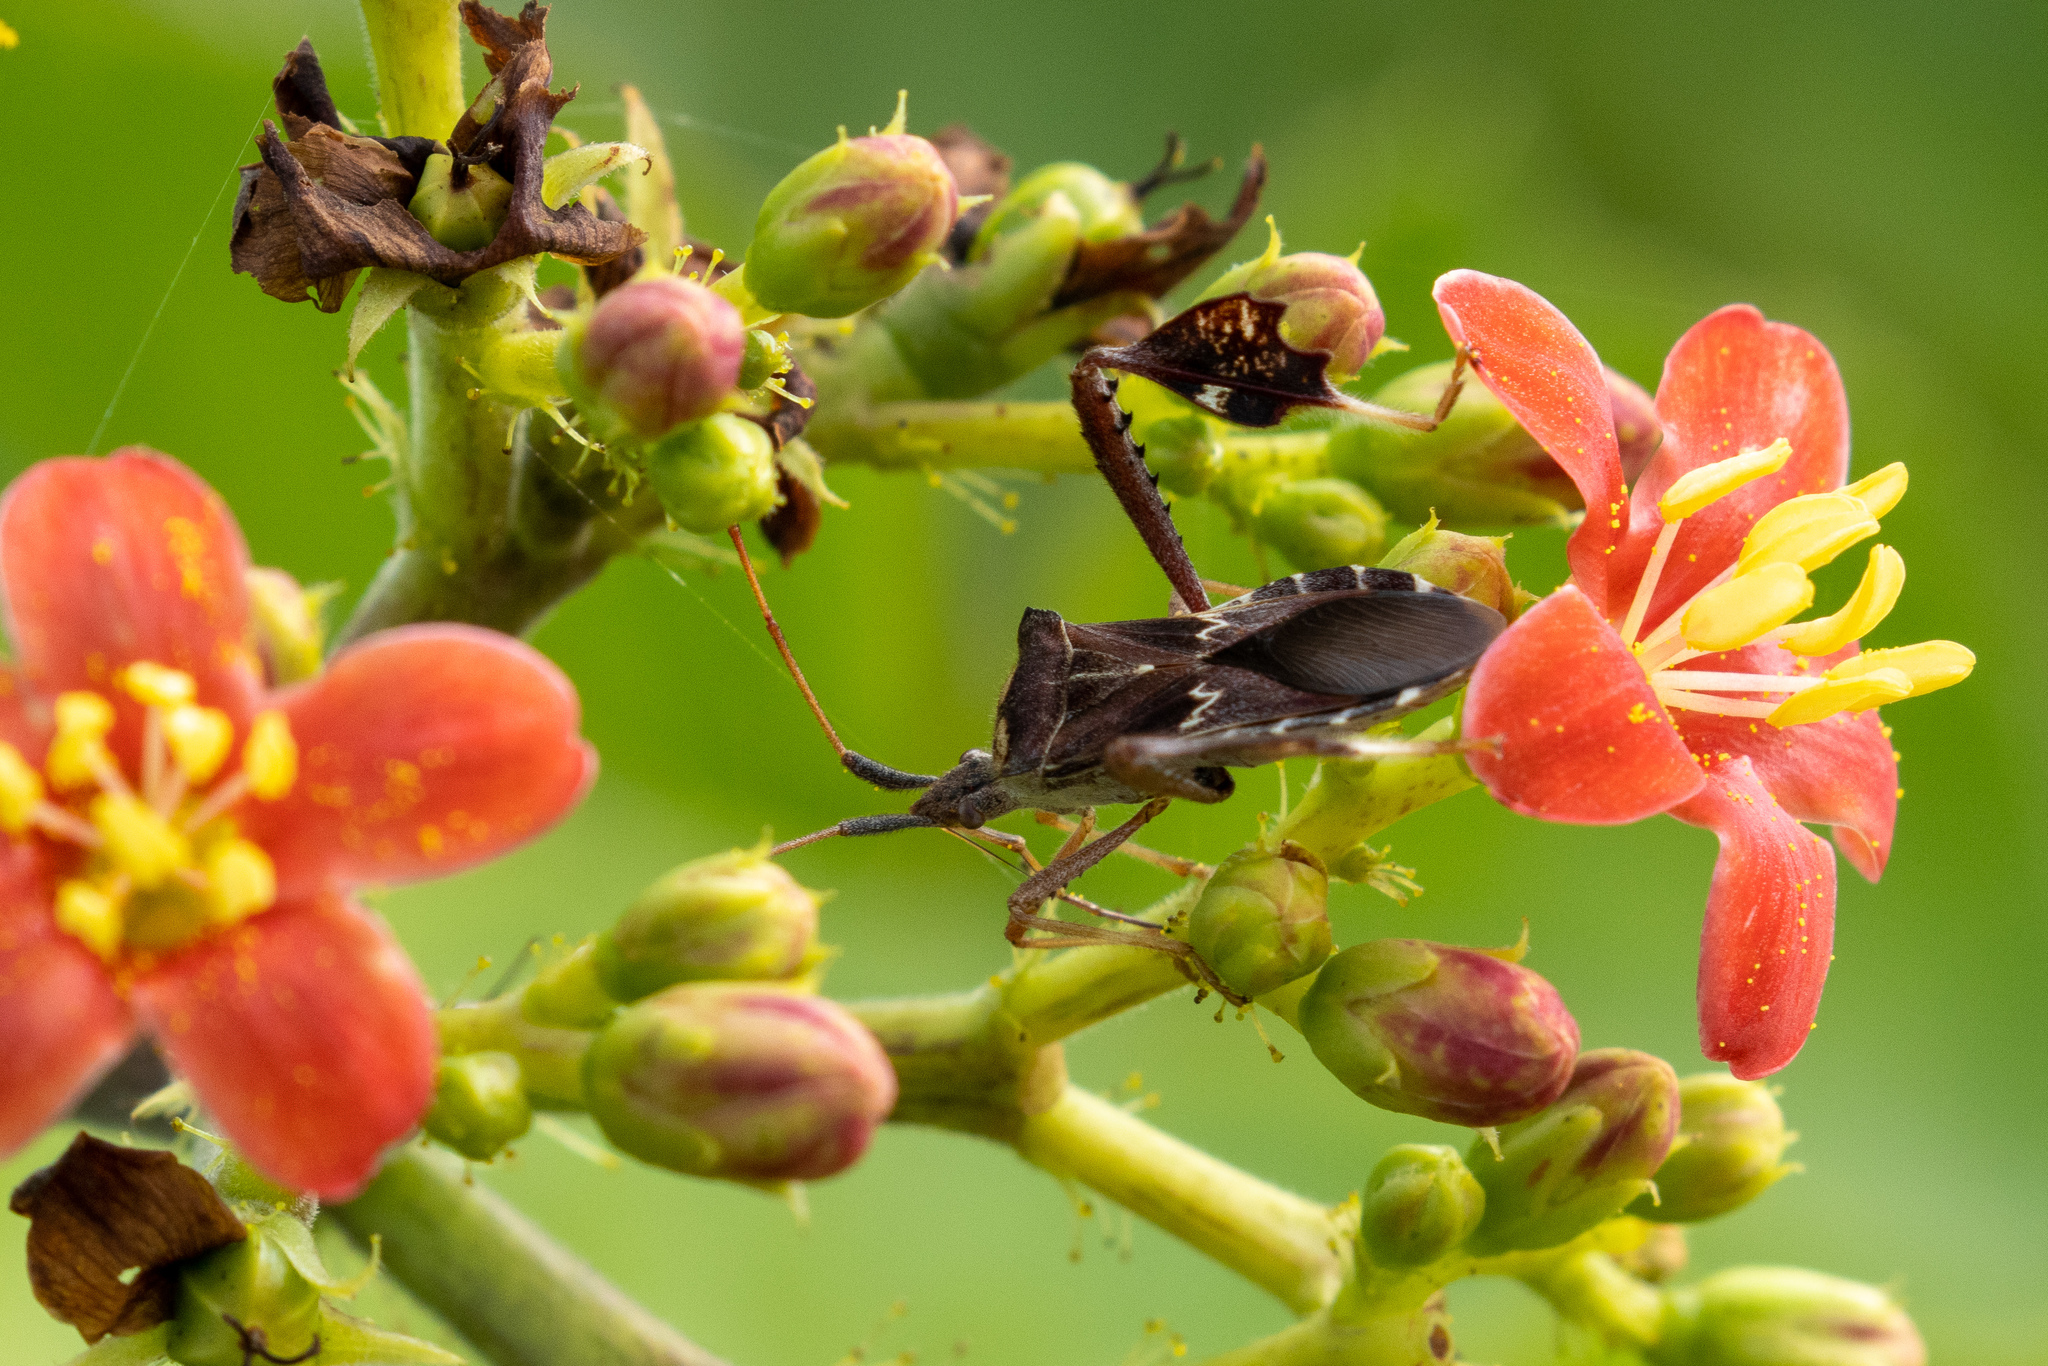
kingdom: Animalia
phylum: Arthropoda
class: Insecta
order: Hemiptera
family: Coreidae
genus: Leptoglossus
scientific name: Leptoglossus zonatus
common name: Large-legged bug
